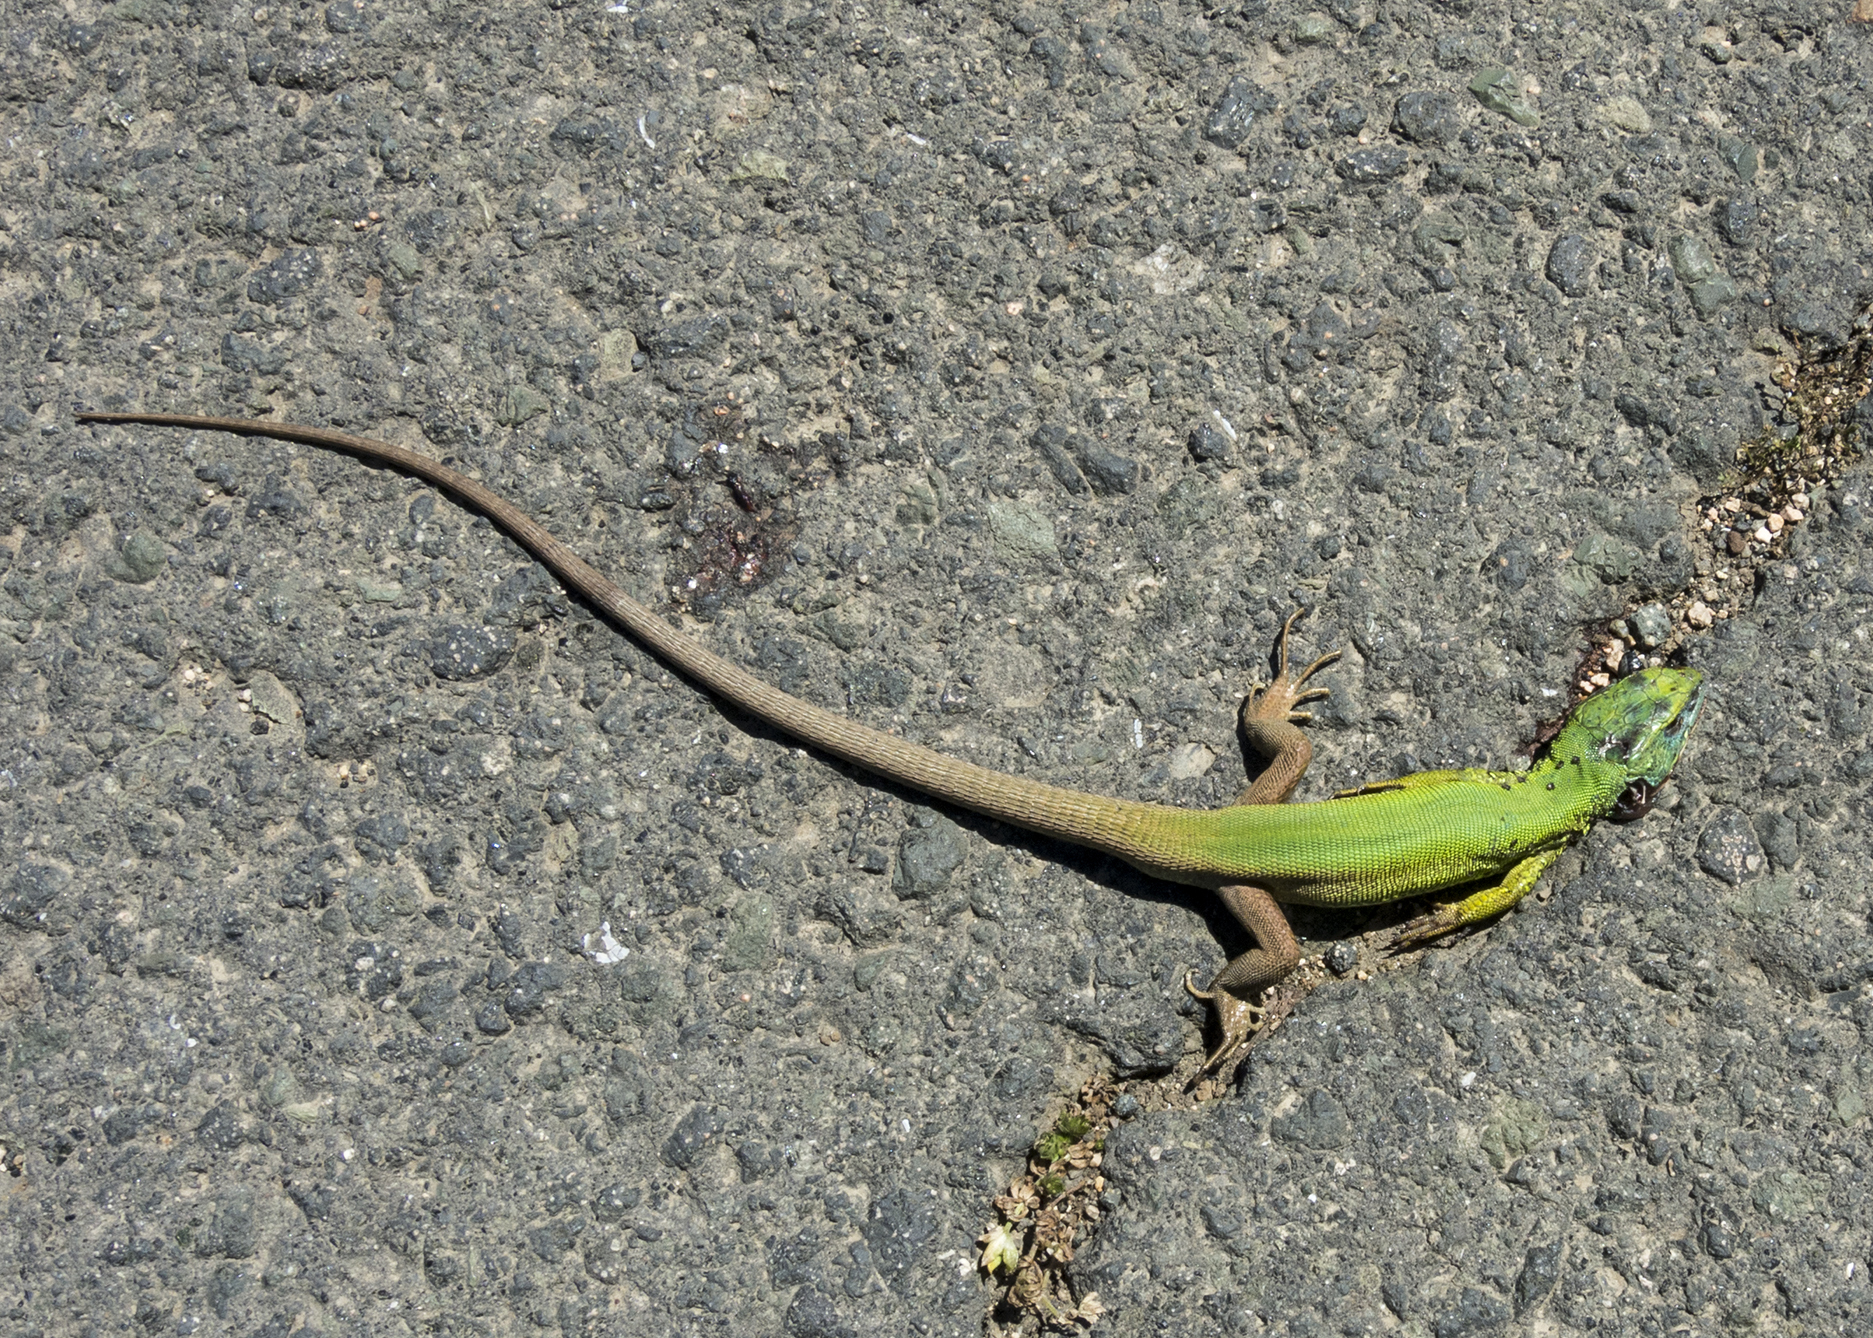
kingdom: Animalia
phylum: Chordata
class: Squamata
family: Lacertidae
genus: Lacerta
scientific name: Lacerta viridis
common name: European green lizard
